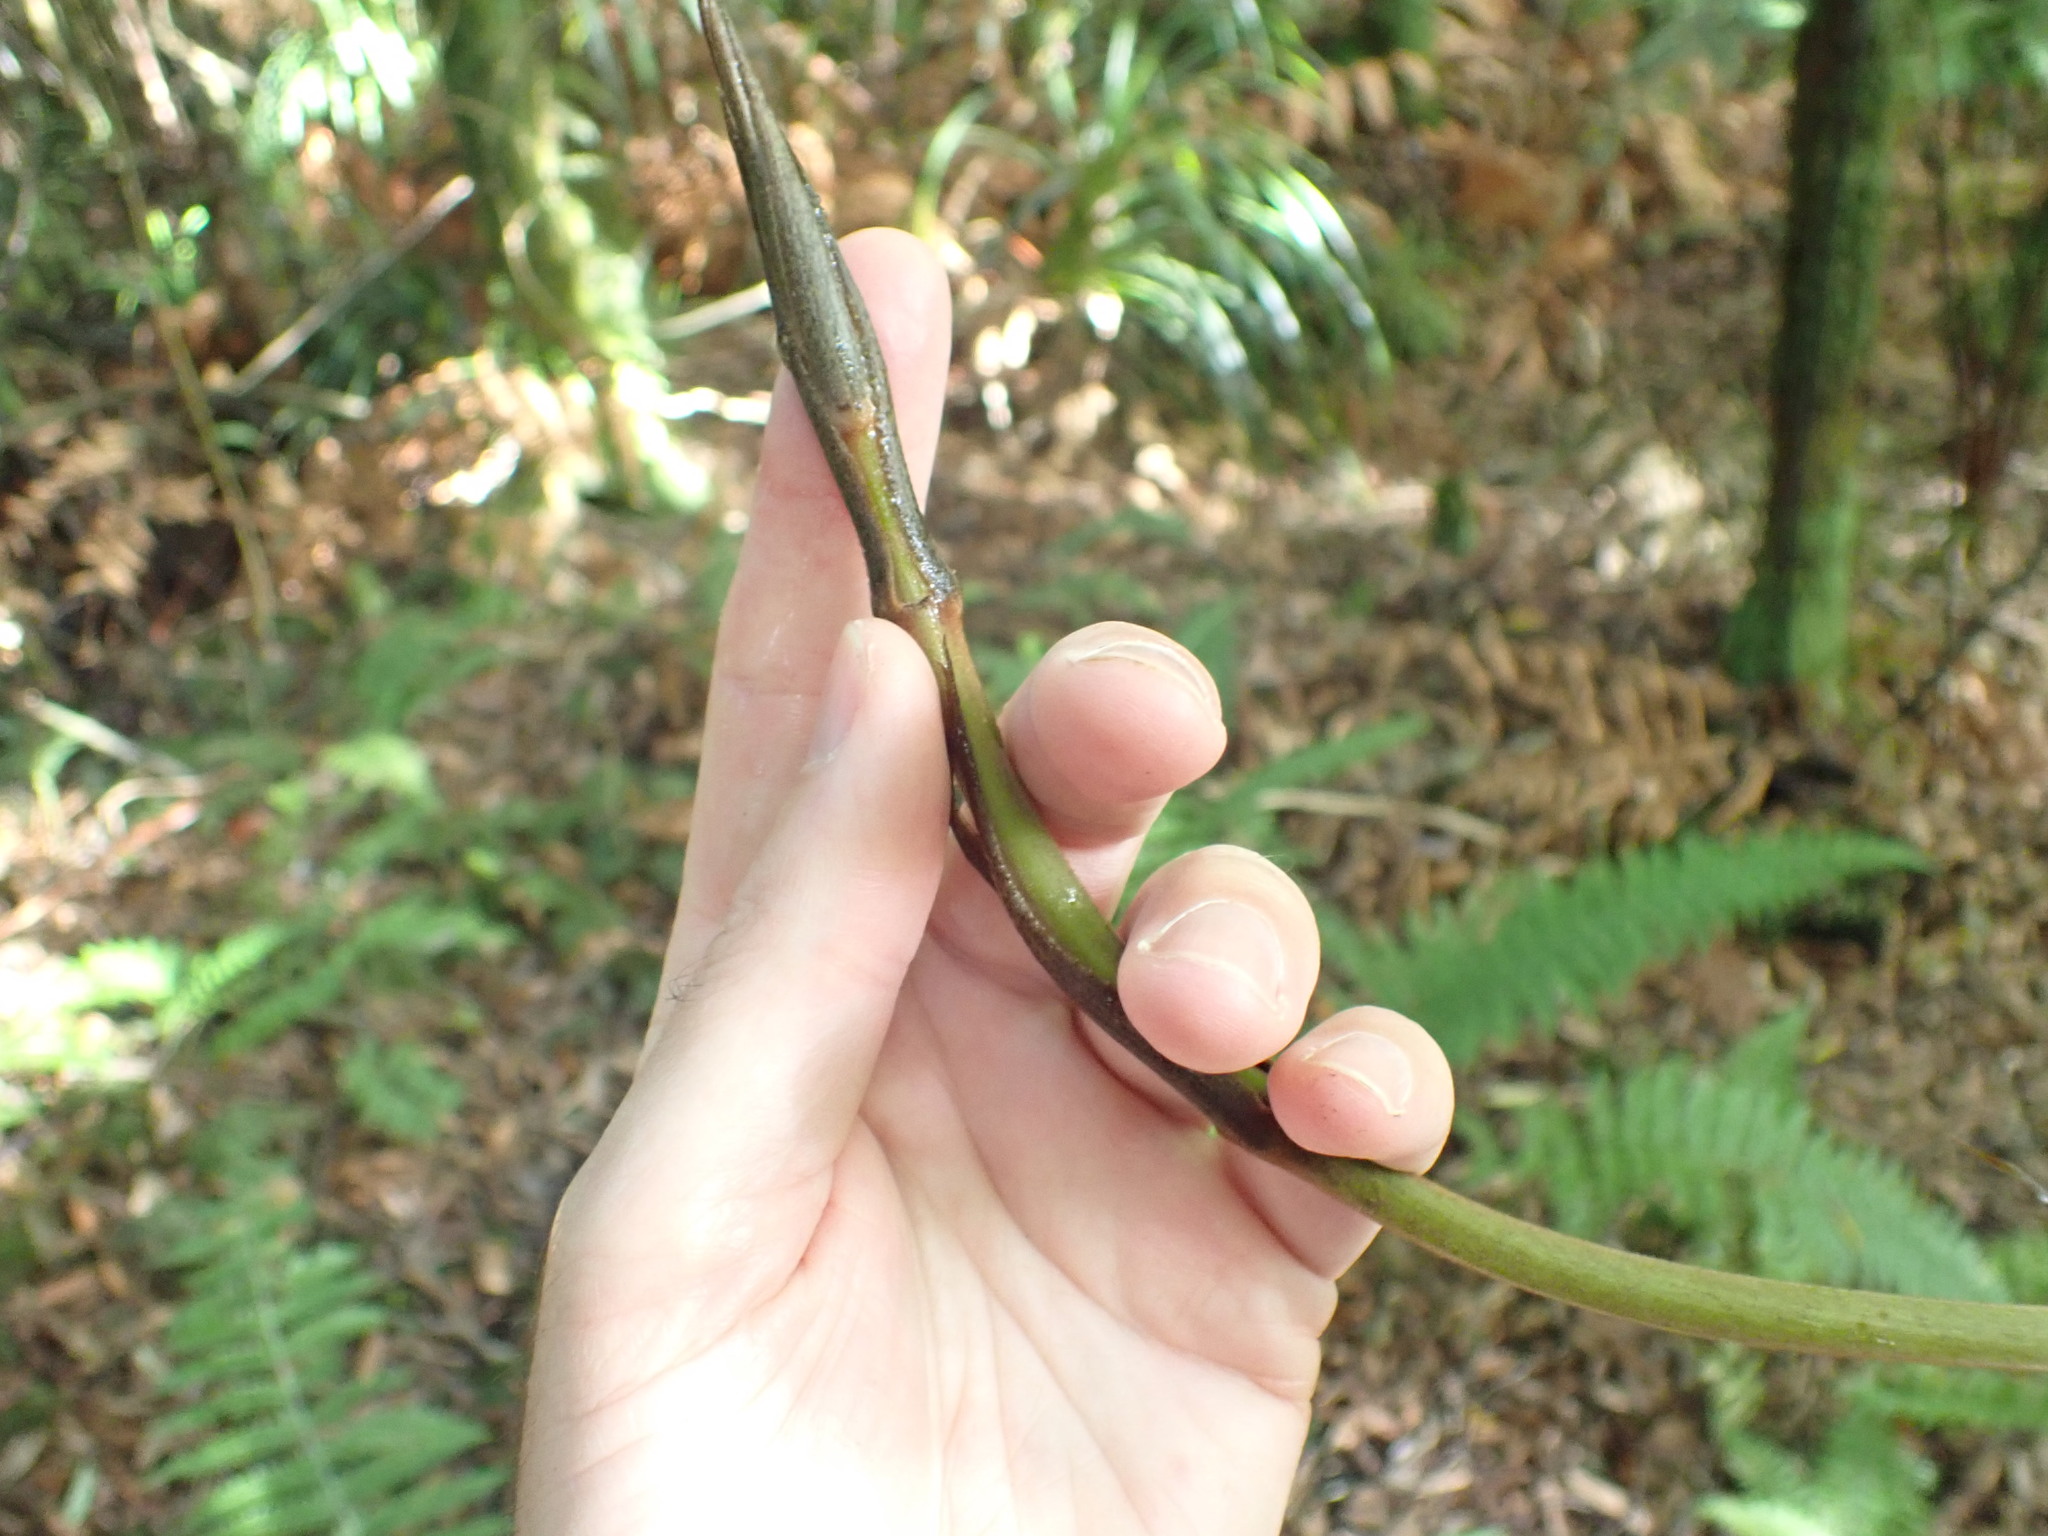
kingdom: Plantae
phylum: Tracheophyta
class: Liliopsida
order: Liliales
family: Ripogonaceae
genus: Ripogonum
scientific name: Ripogonum scandens
